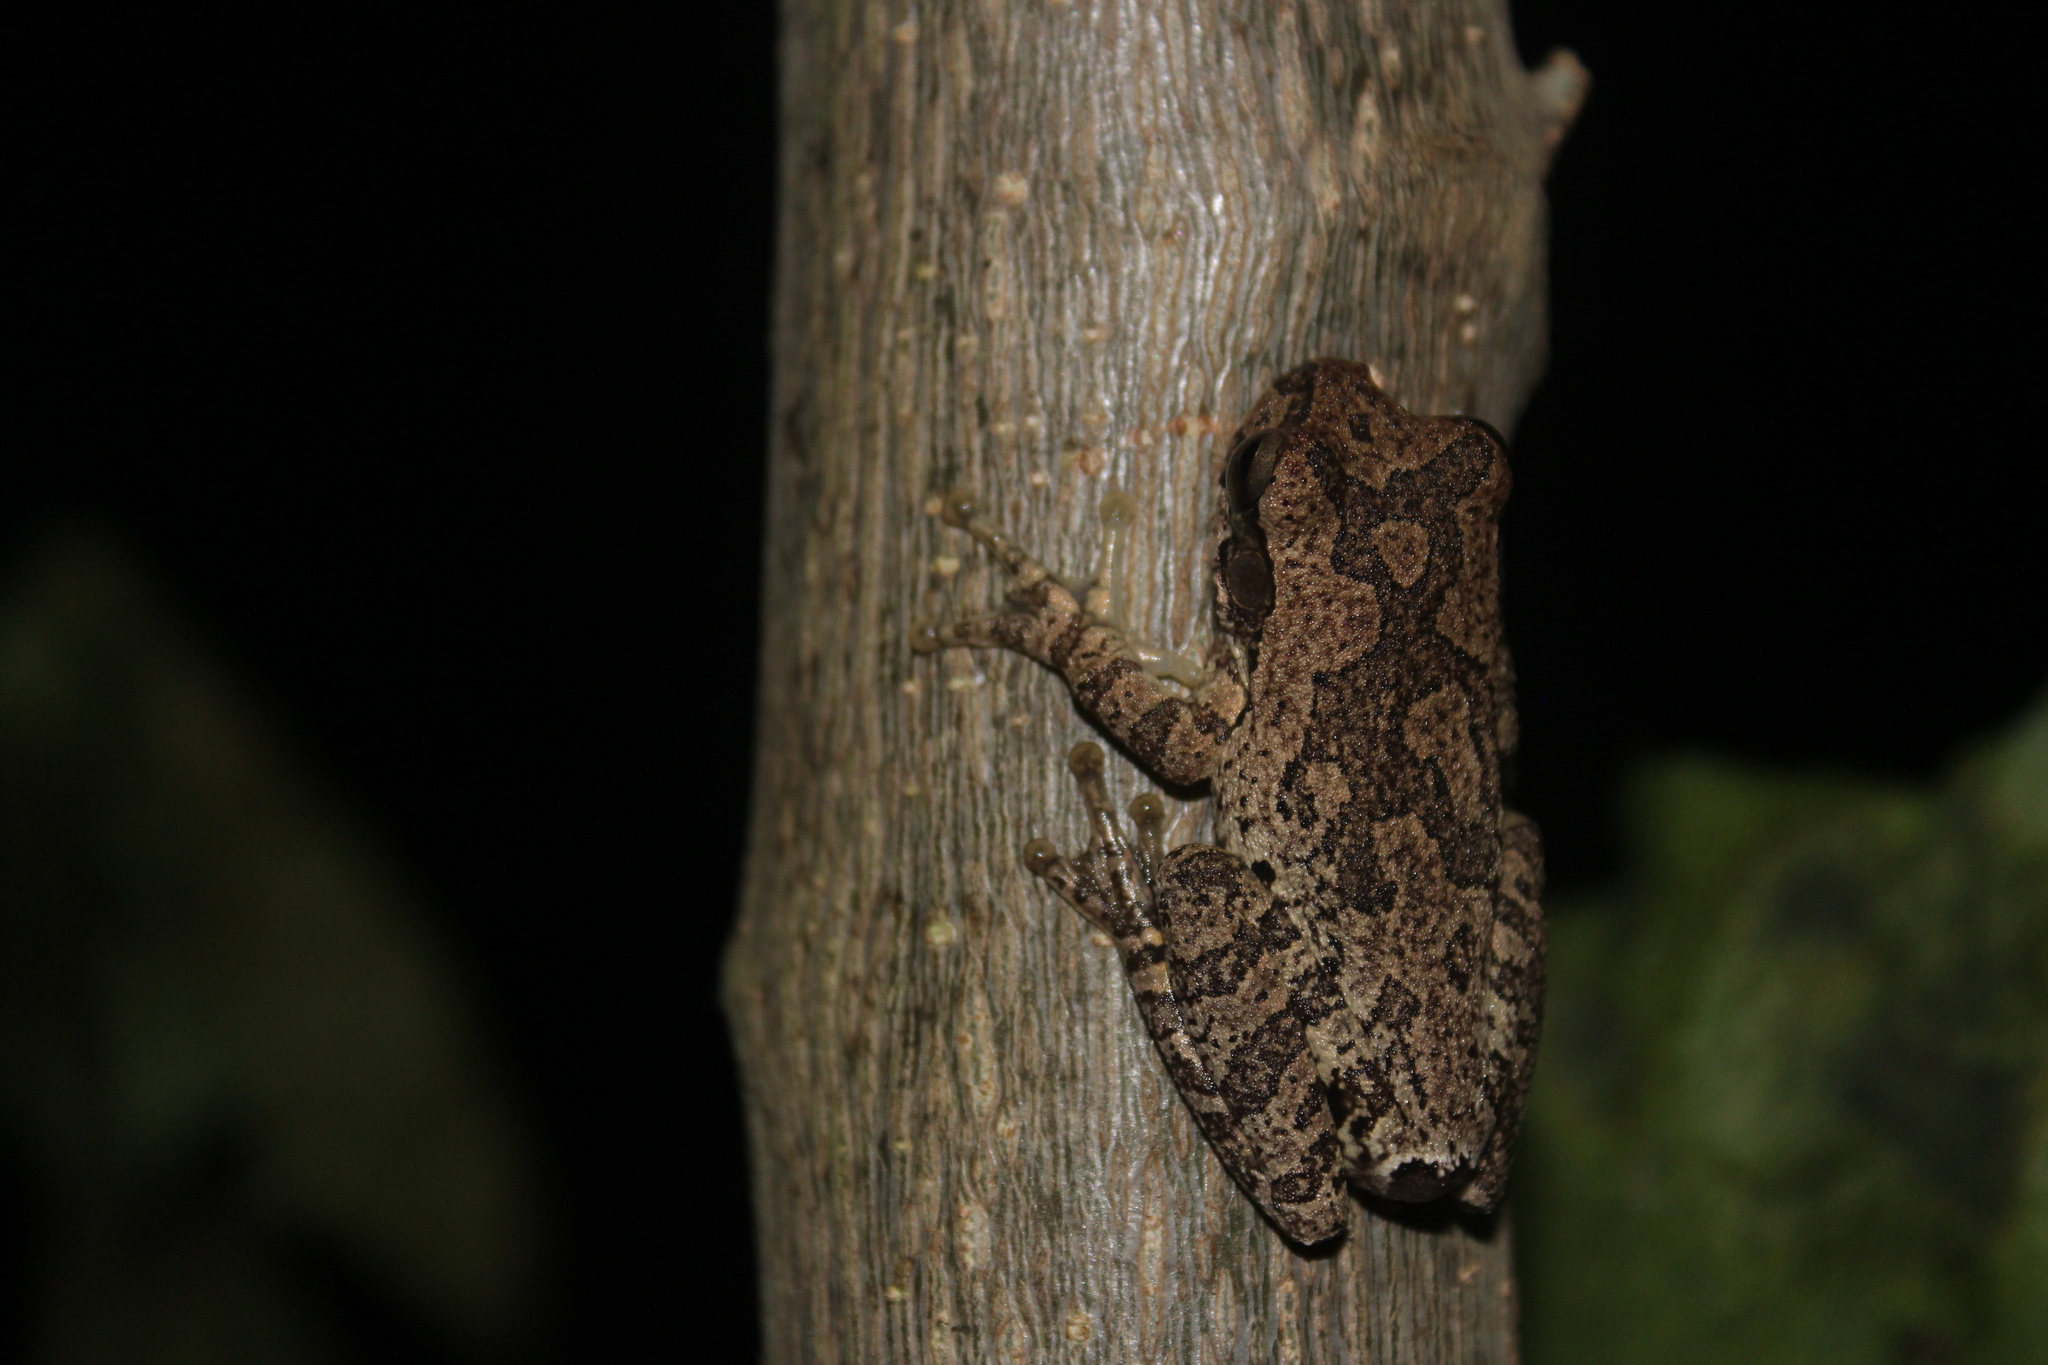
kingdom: Animalia
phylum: Chordata
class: Amphibia
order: Anura
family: Hylidae
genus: Smilisca
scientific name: Smilisca baudinii
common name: Mexican smilisca
